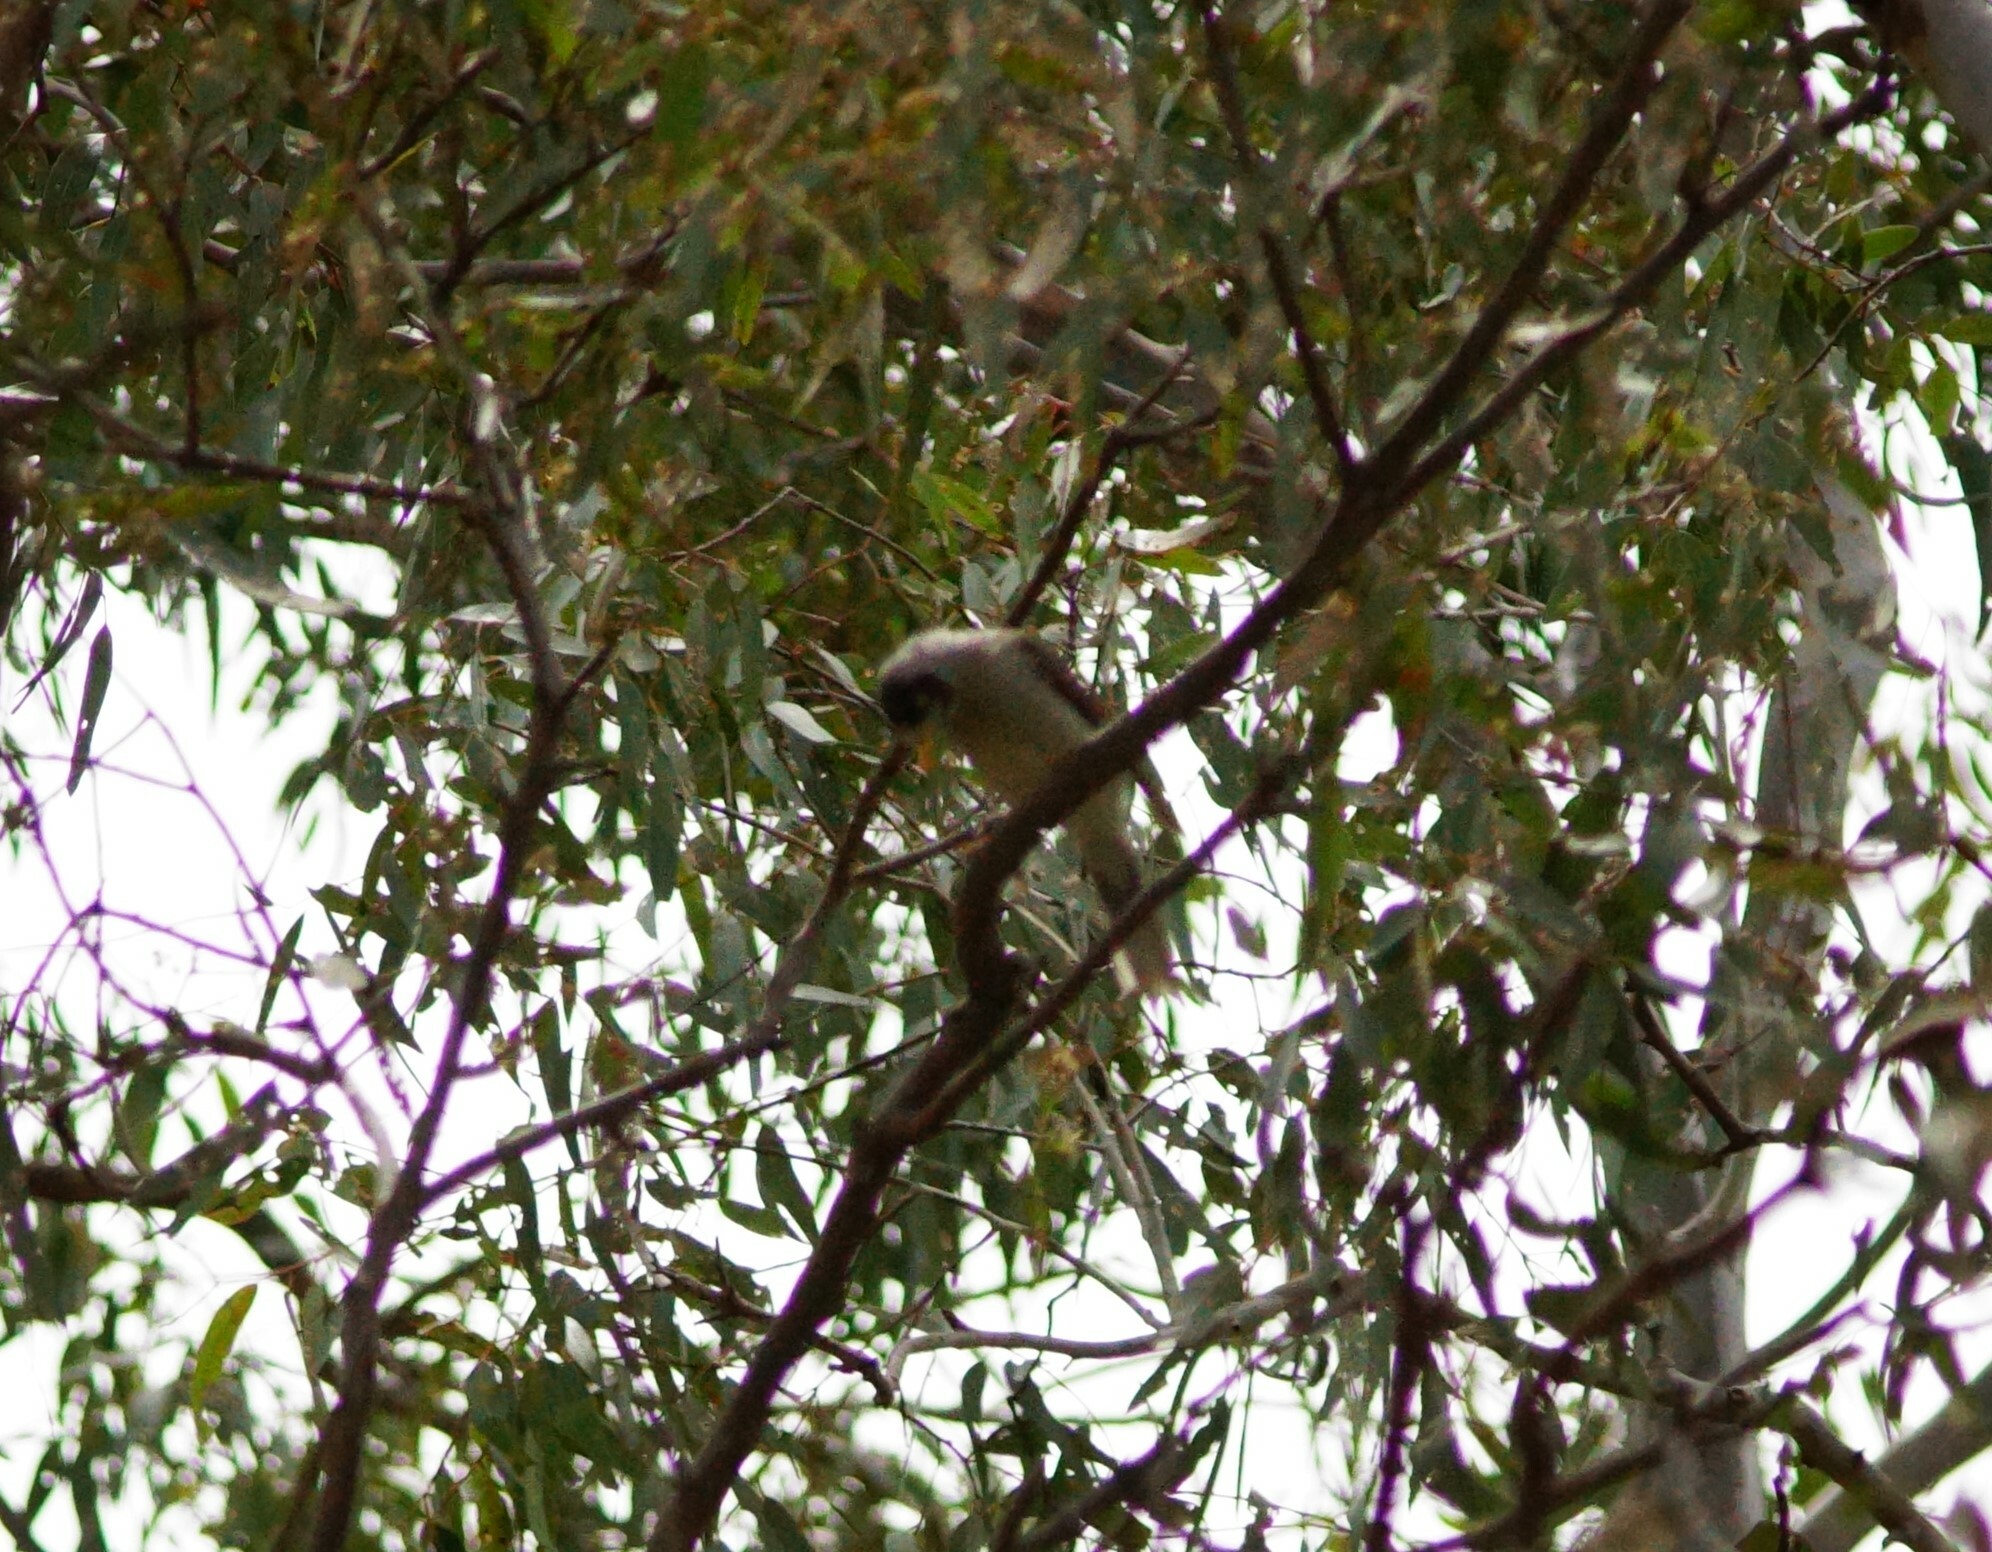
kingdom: Animalia
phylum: Chordata
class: Aves
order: Passeriformes
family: Meliphagidae
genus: Manorina
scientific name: Manorina melanocephala
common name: Noisy miner
